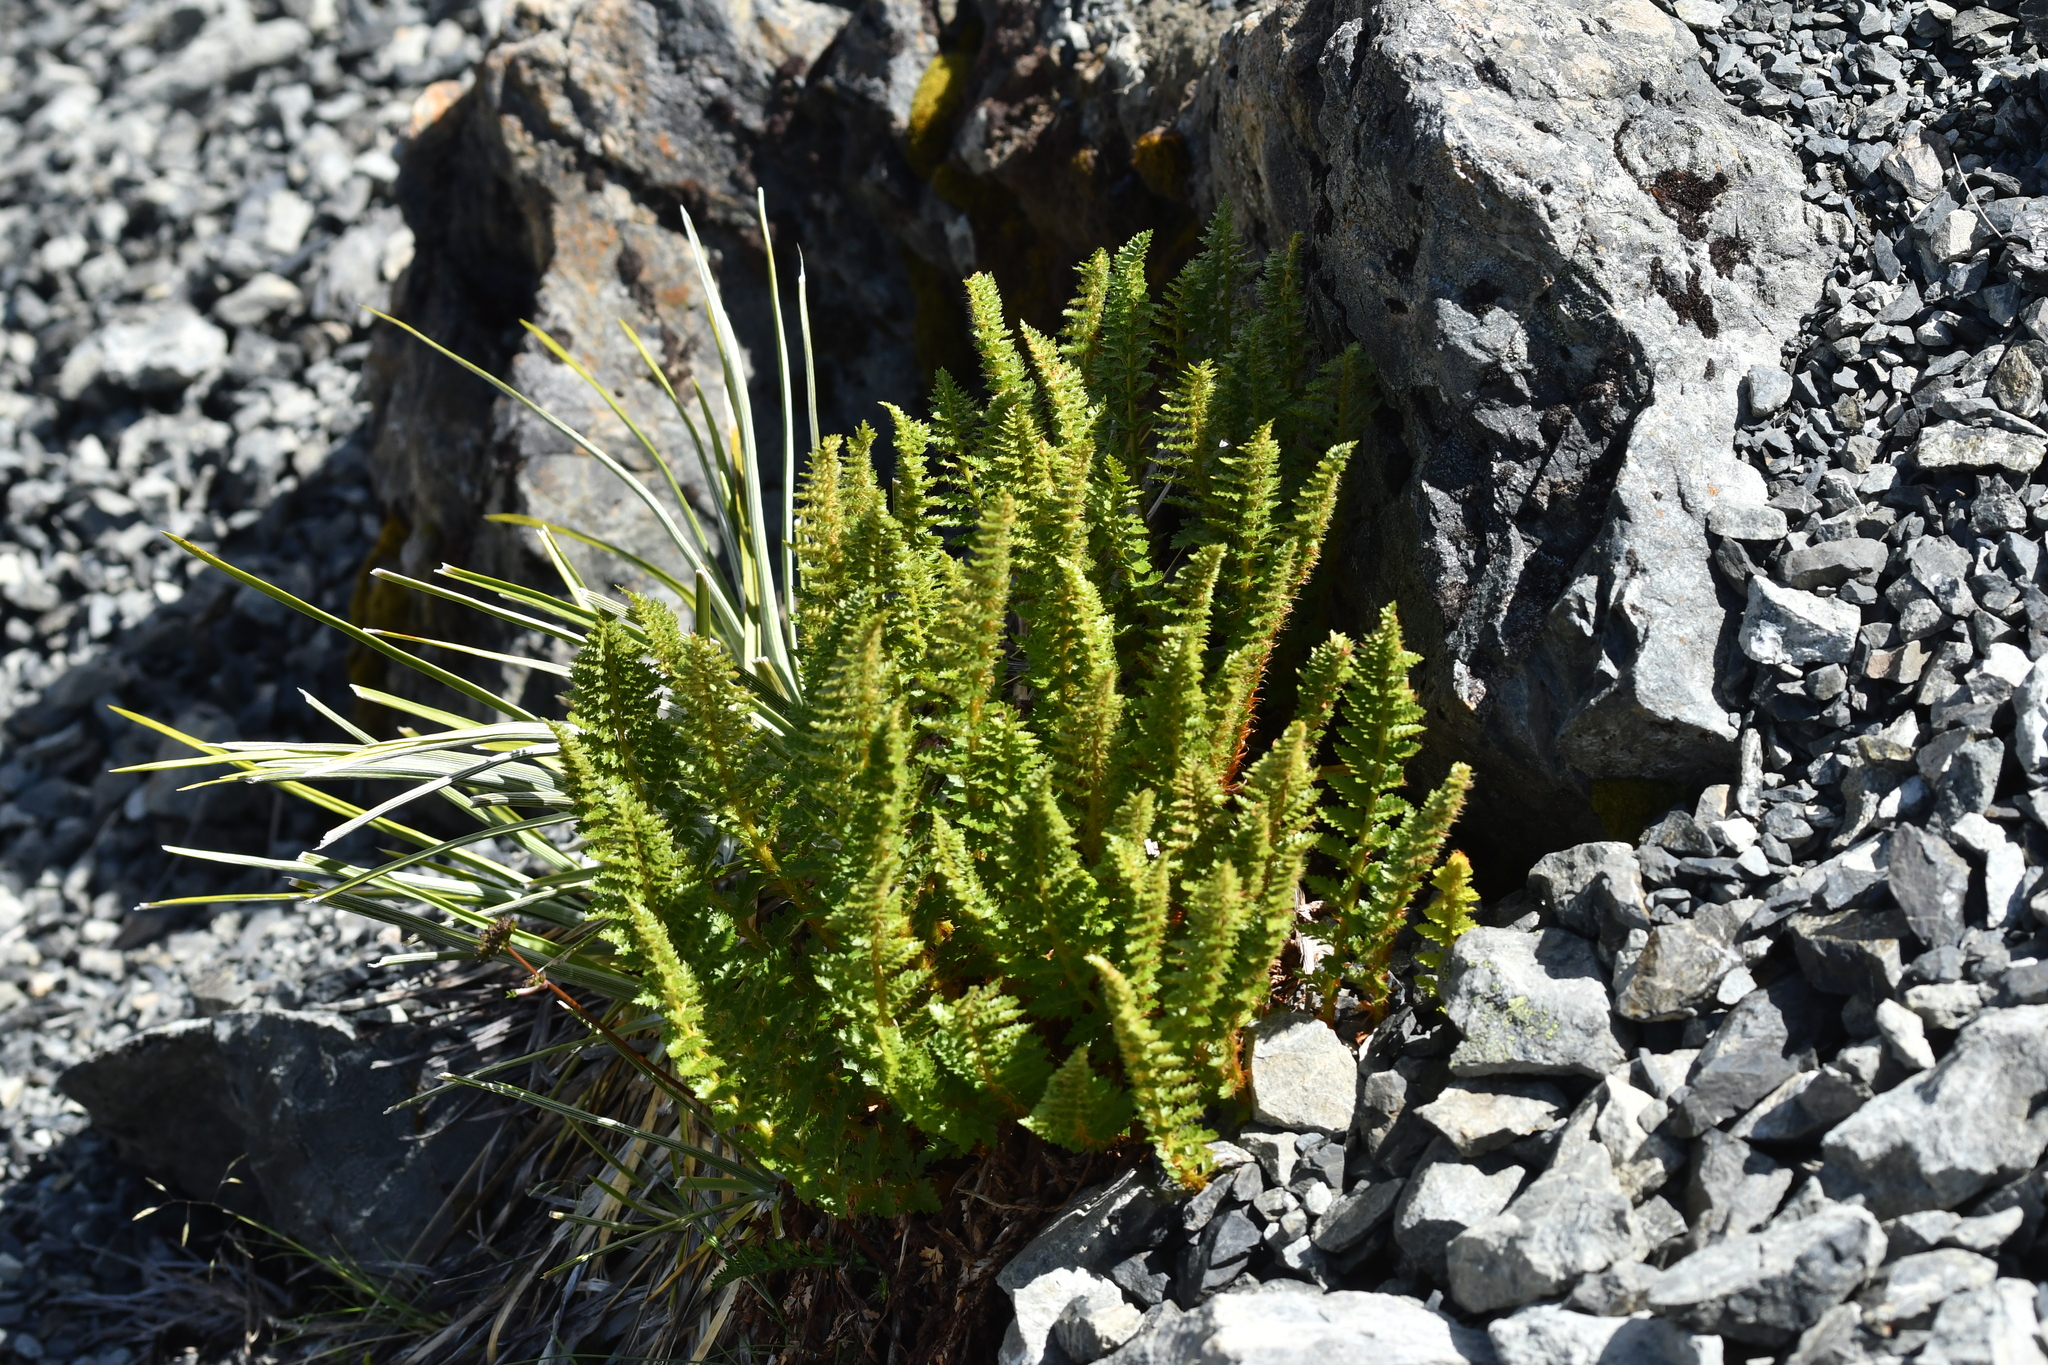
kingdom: Plantae
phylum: Tracheophyta
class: Polypodiopsida
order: Polypodiales
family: Dryopteridaceae
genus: Polystichum
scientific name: Polystichum cystostegia
